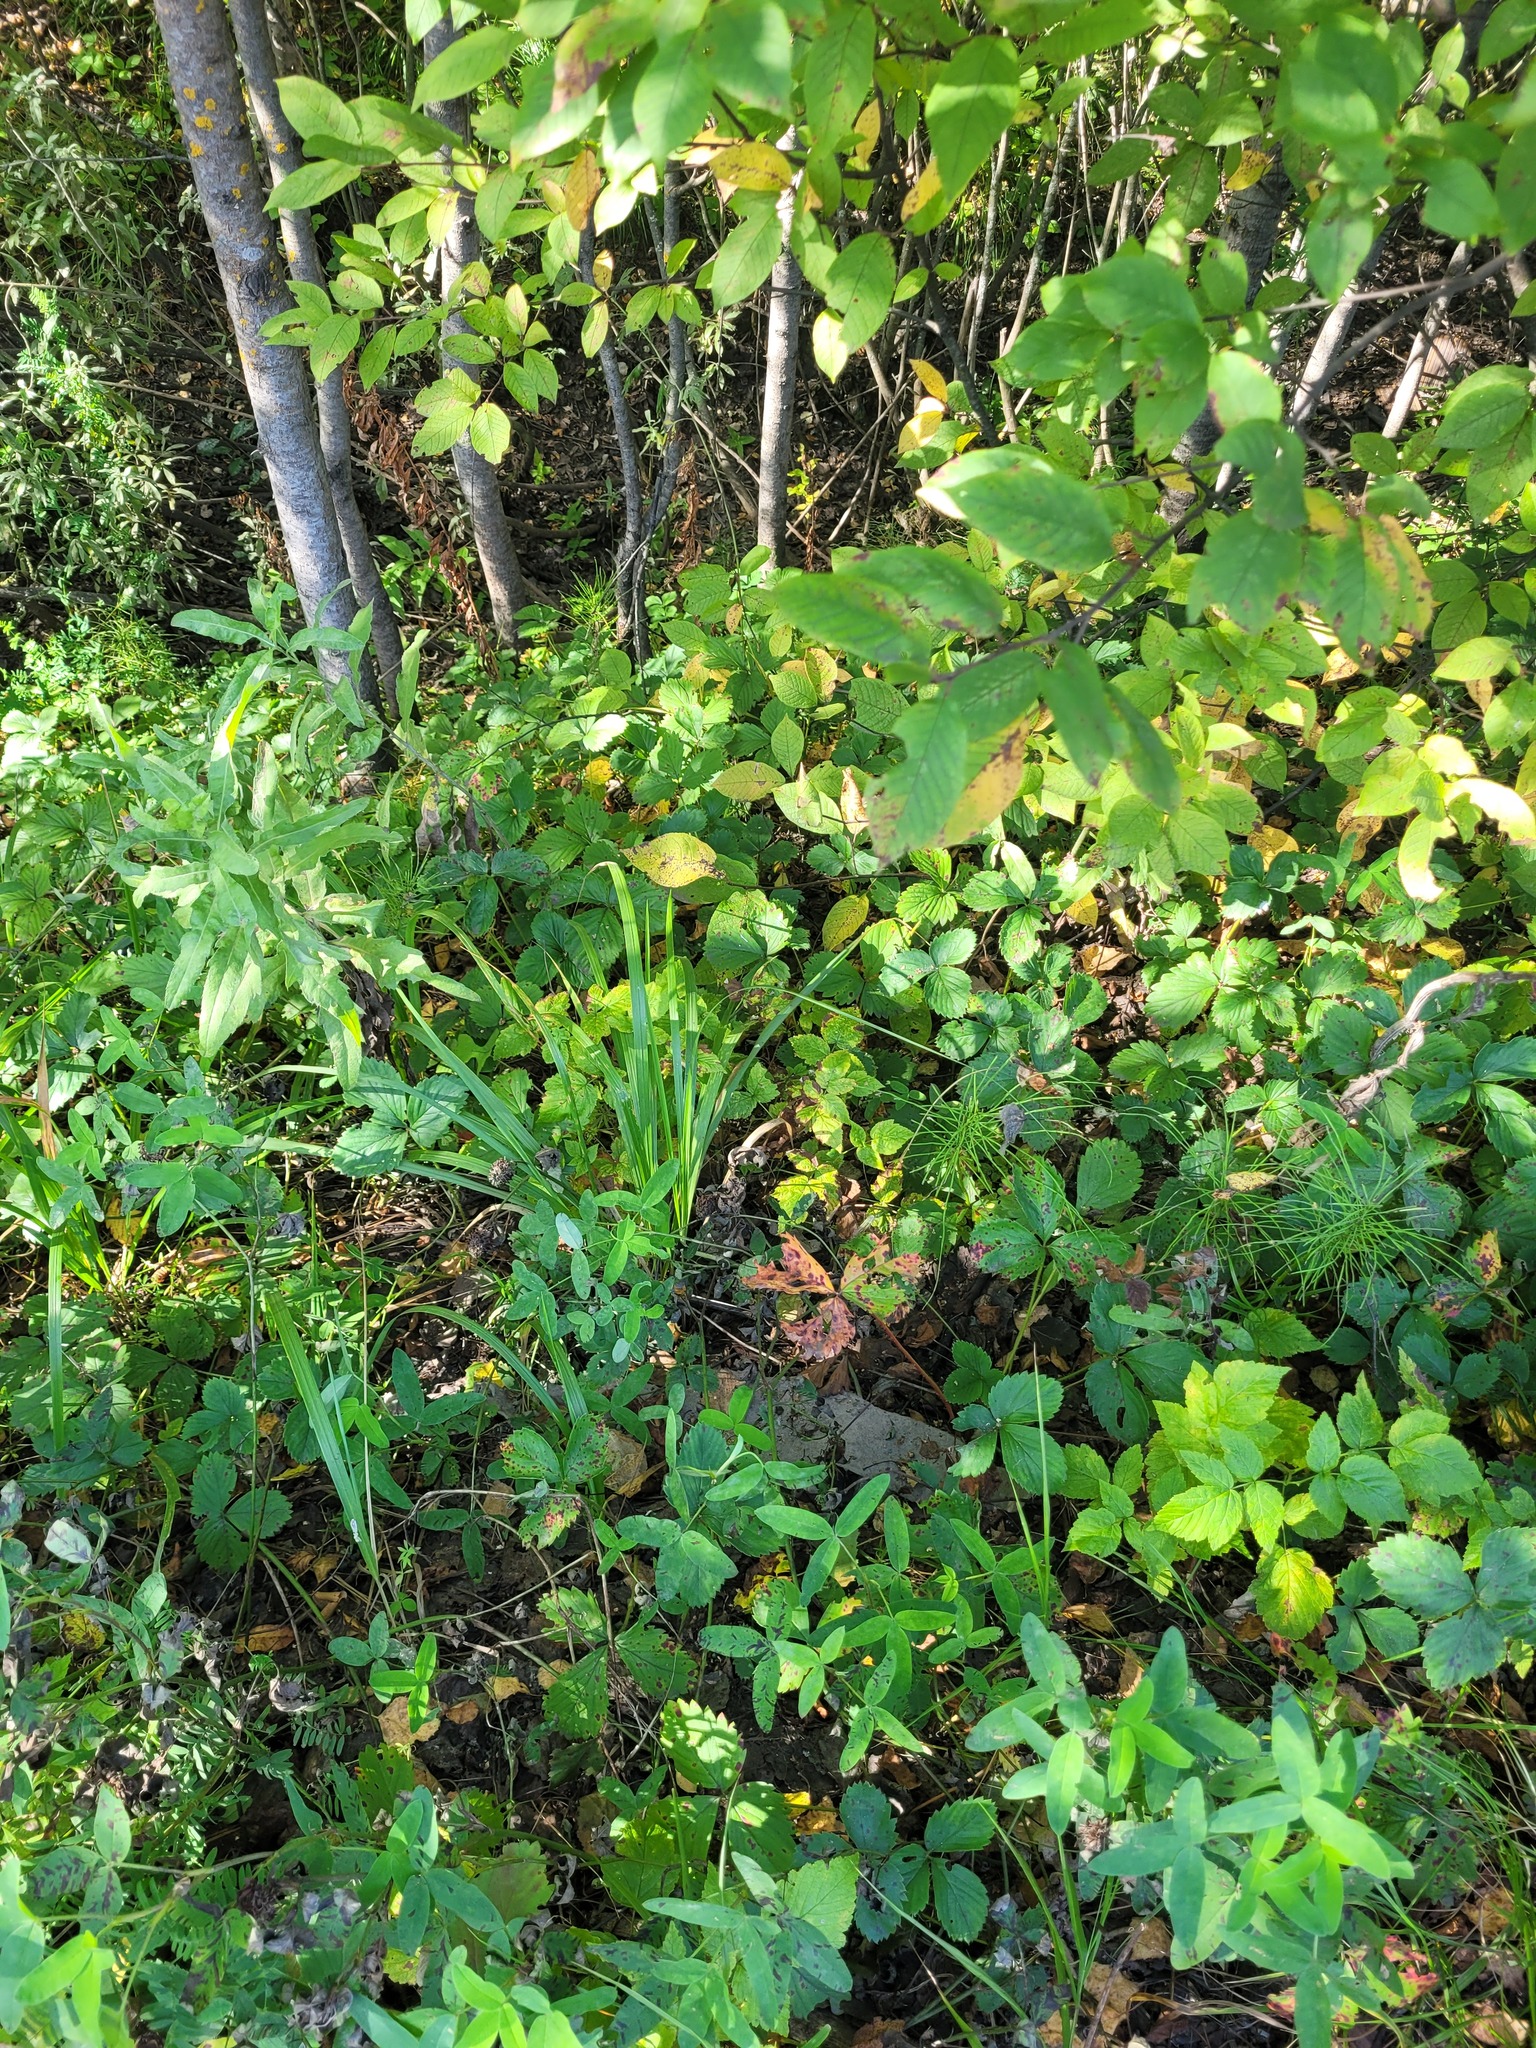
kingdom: Plantae
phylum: Tracheophyta
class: Liliopsida
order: Poales
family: Poaceae
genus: Calamagrostis
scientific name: Calamagrostis arundinacea
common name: Metskastik
